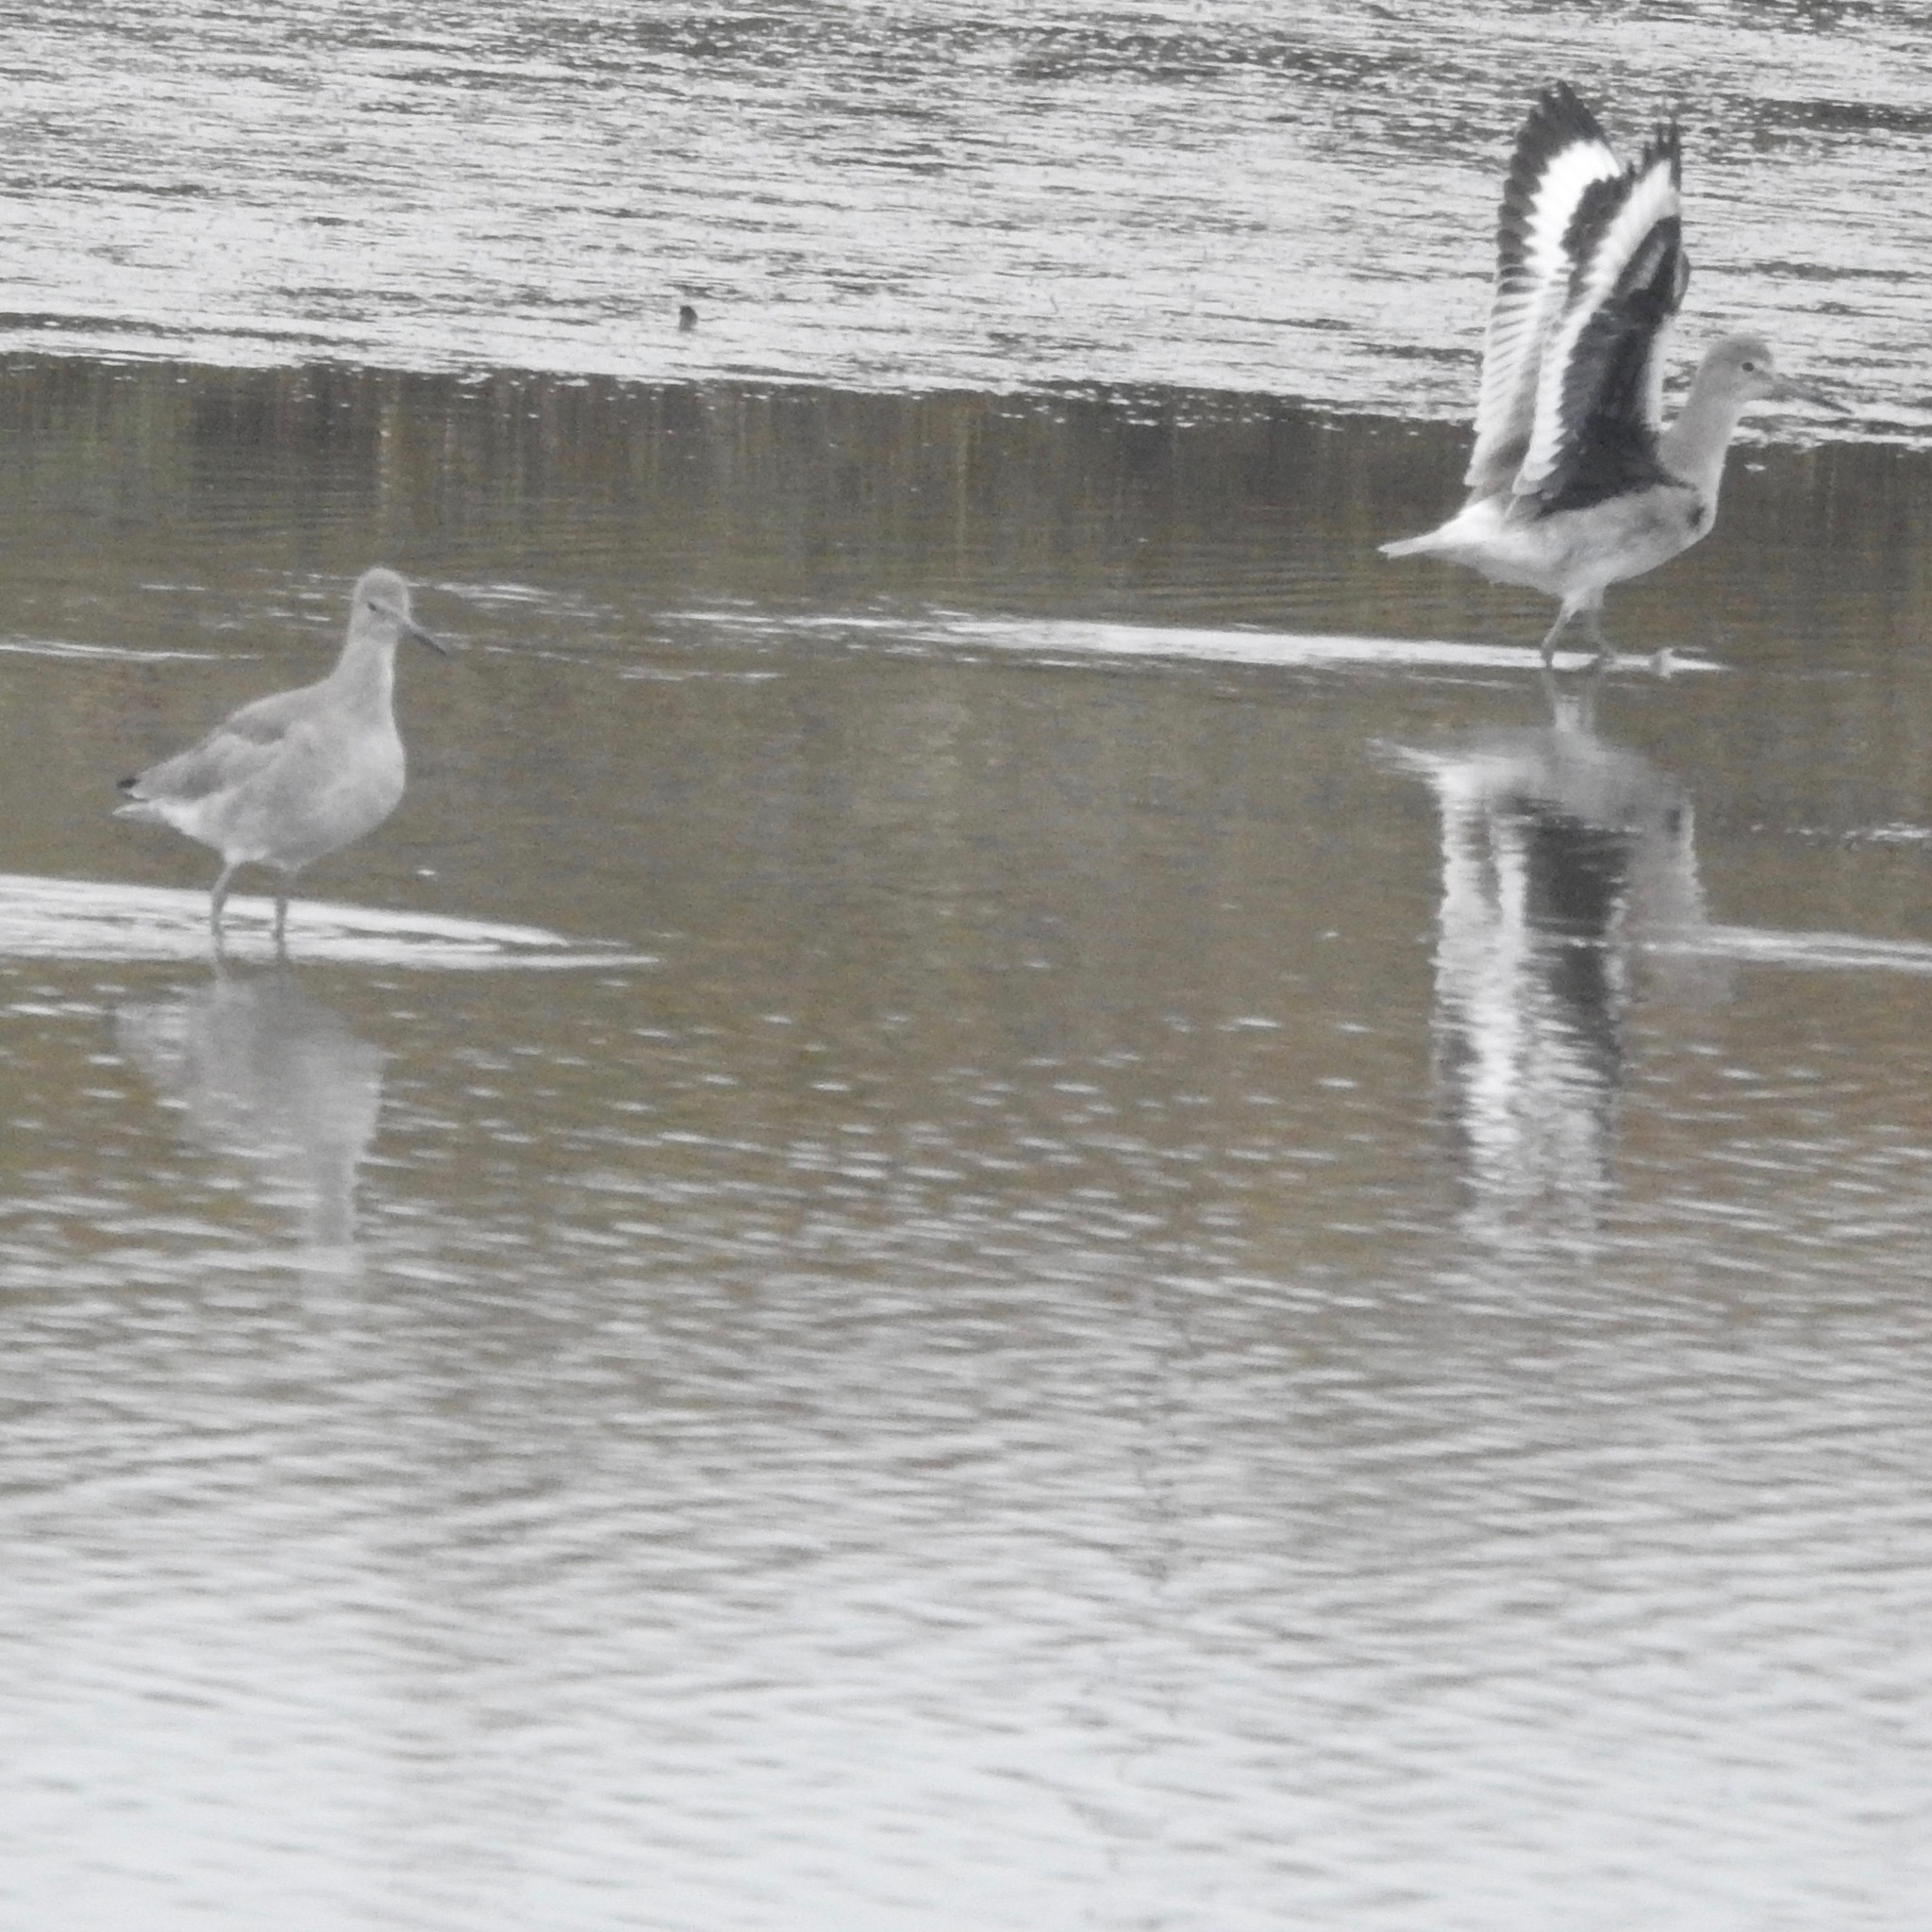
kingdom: Animalia
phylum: Chordata
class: Aves
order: Charadriiformes
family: Scolopacidae
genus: Tringa
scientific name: Tringa semipalmata
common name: Willet
